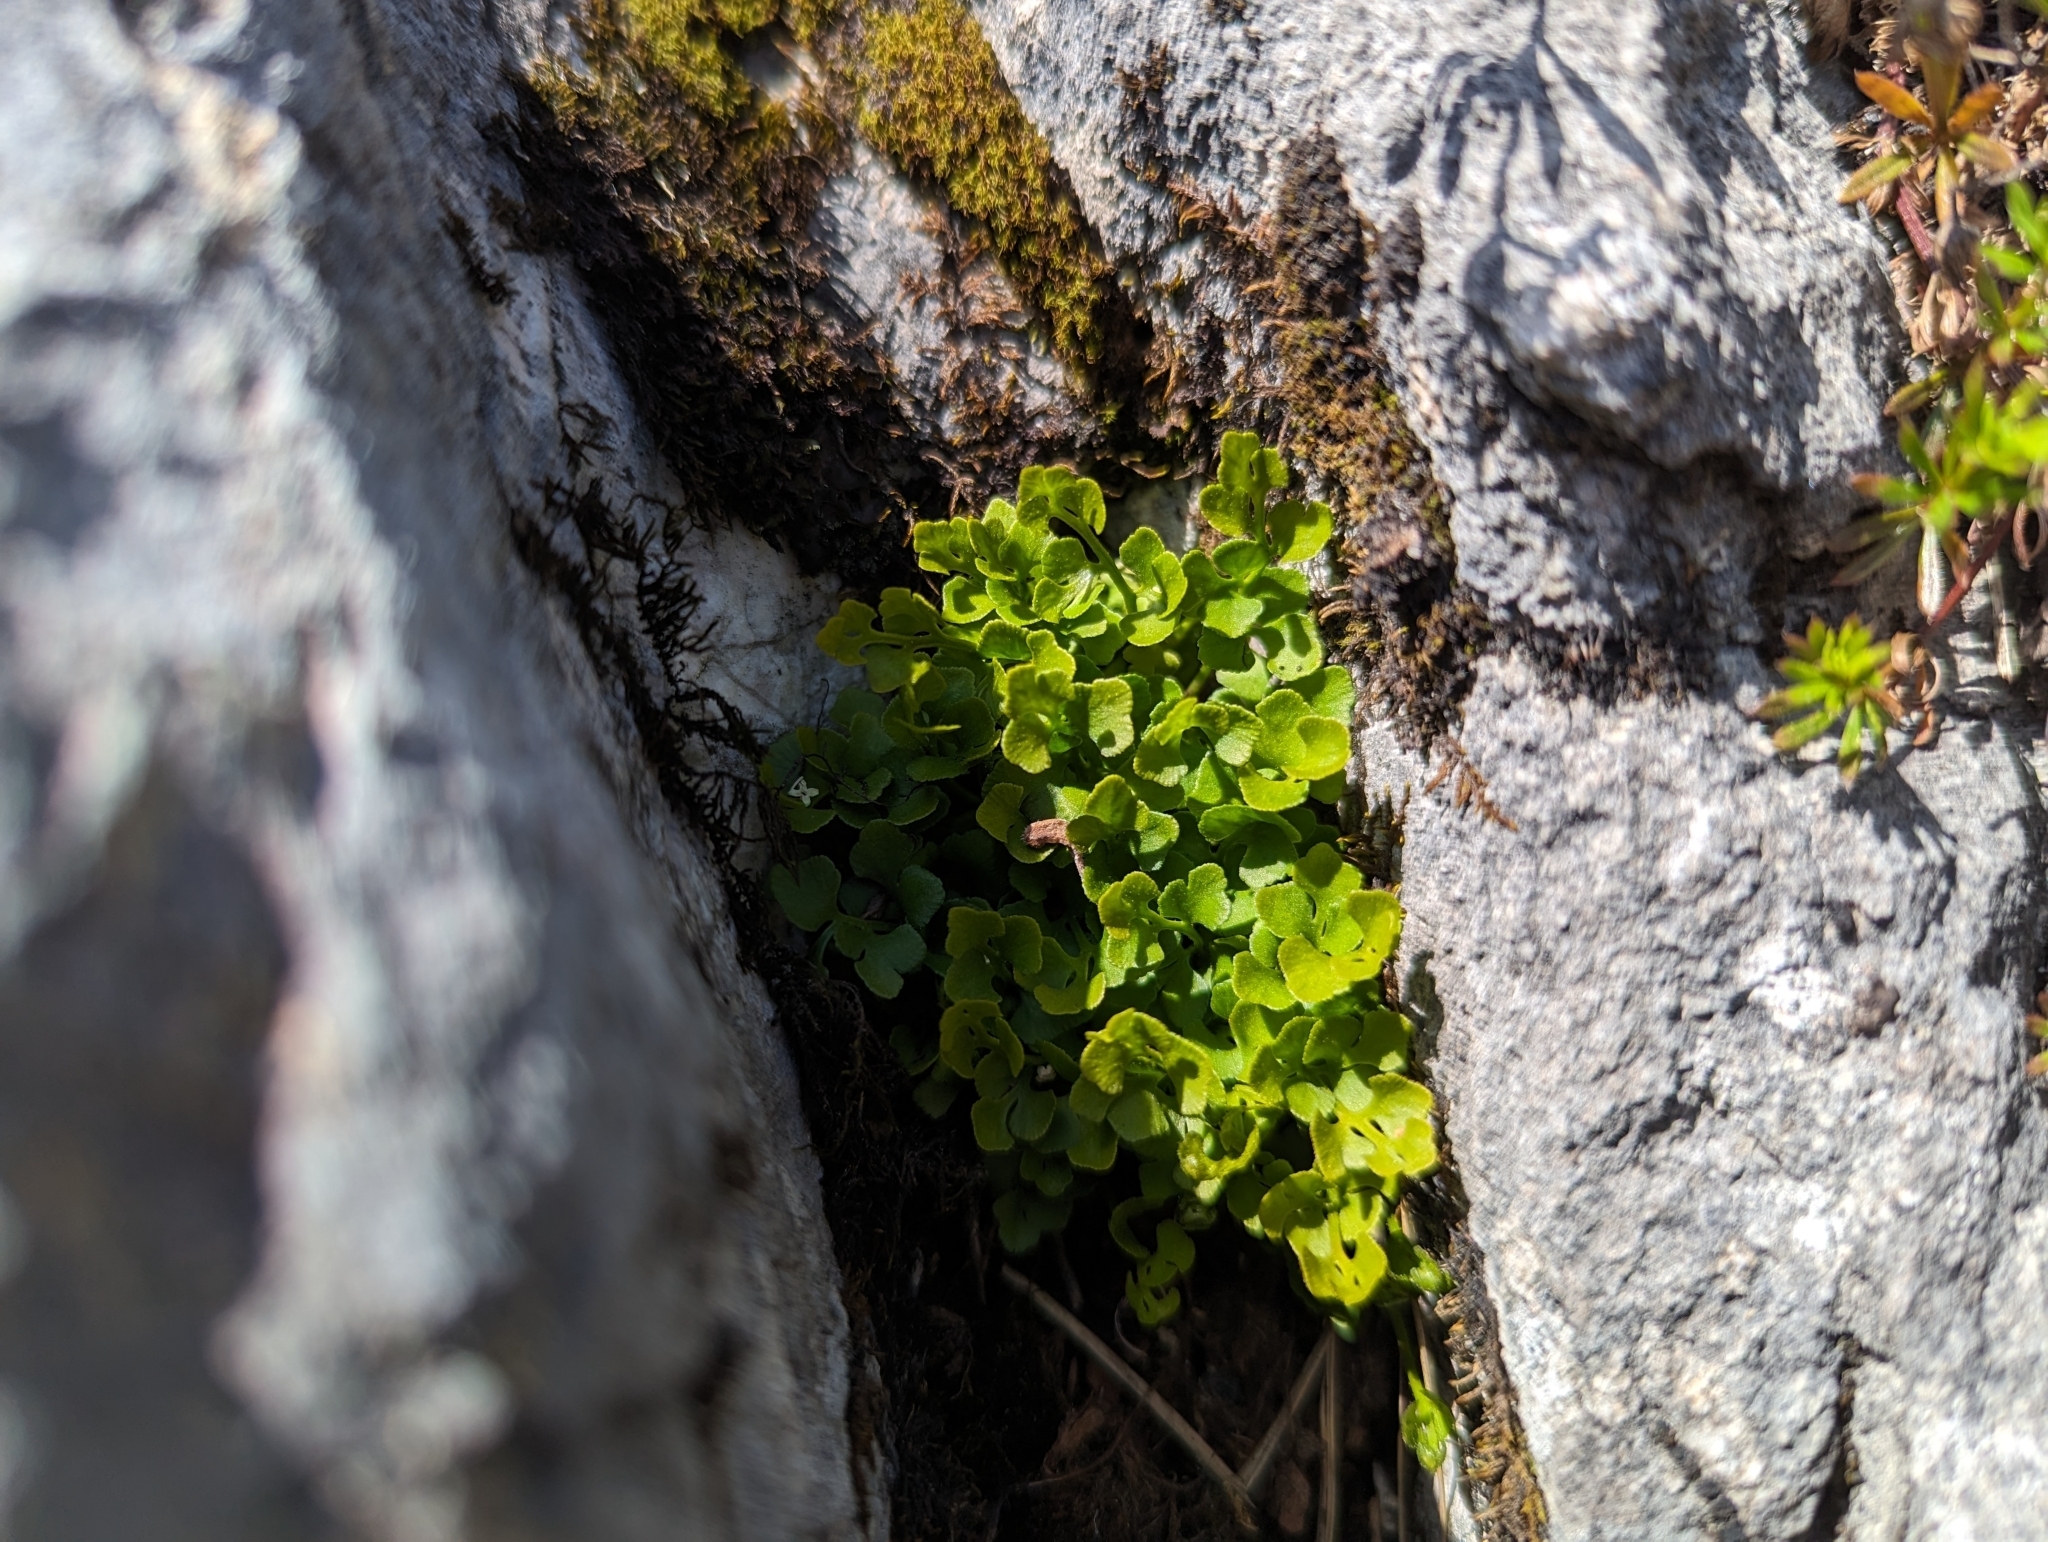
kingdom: Plantae
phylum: Tracheophyta
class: Polypodiopsida
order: Polypodiales
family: Aspleniaceae
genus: Asplenium
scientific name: Asplenium ruta-muraria
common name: Wall-rue
